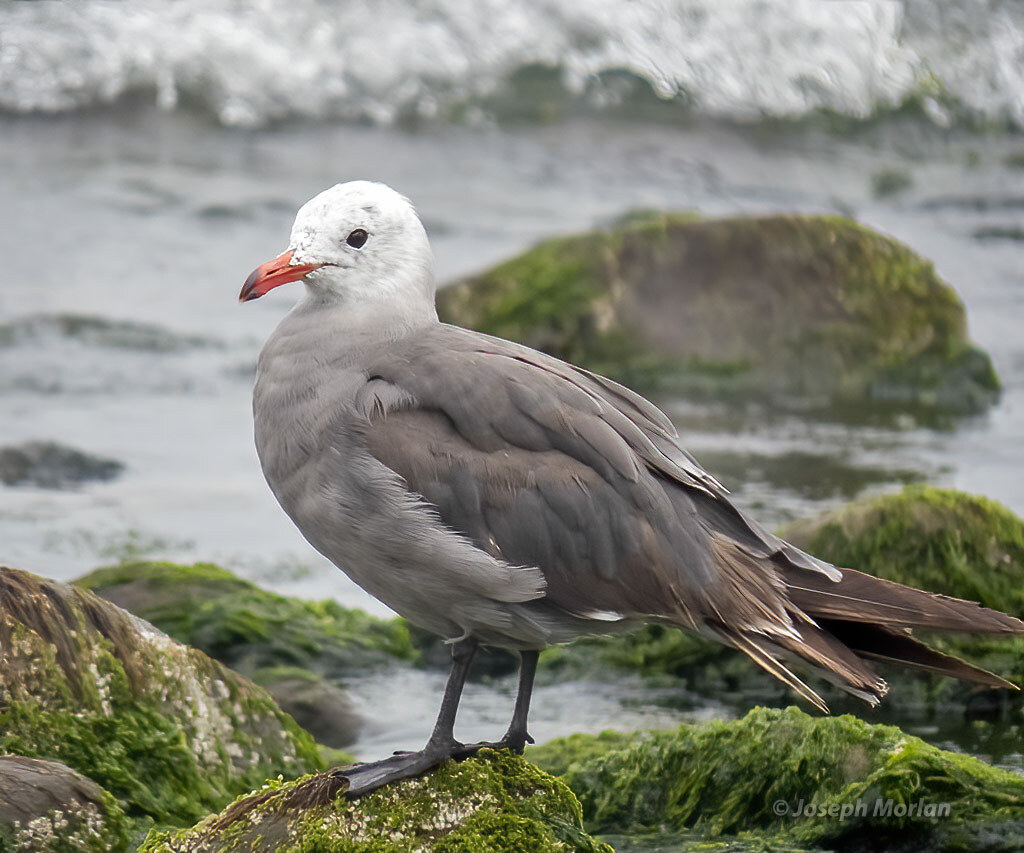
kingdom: Animalia
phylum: Chordata
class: Aves
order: Charadriiformes
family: Laridae
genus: Larus
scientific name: Larus heermanni
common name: Heermann's gull
